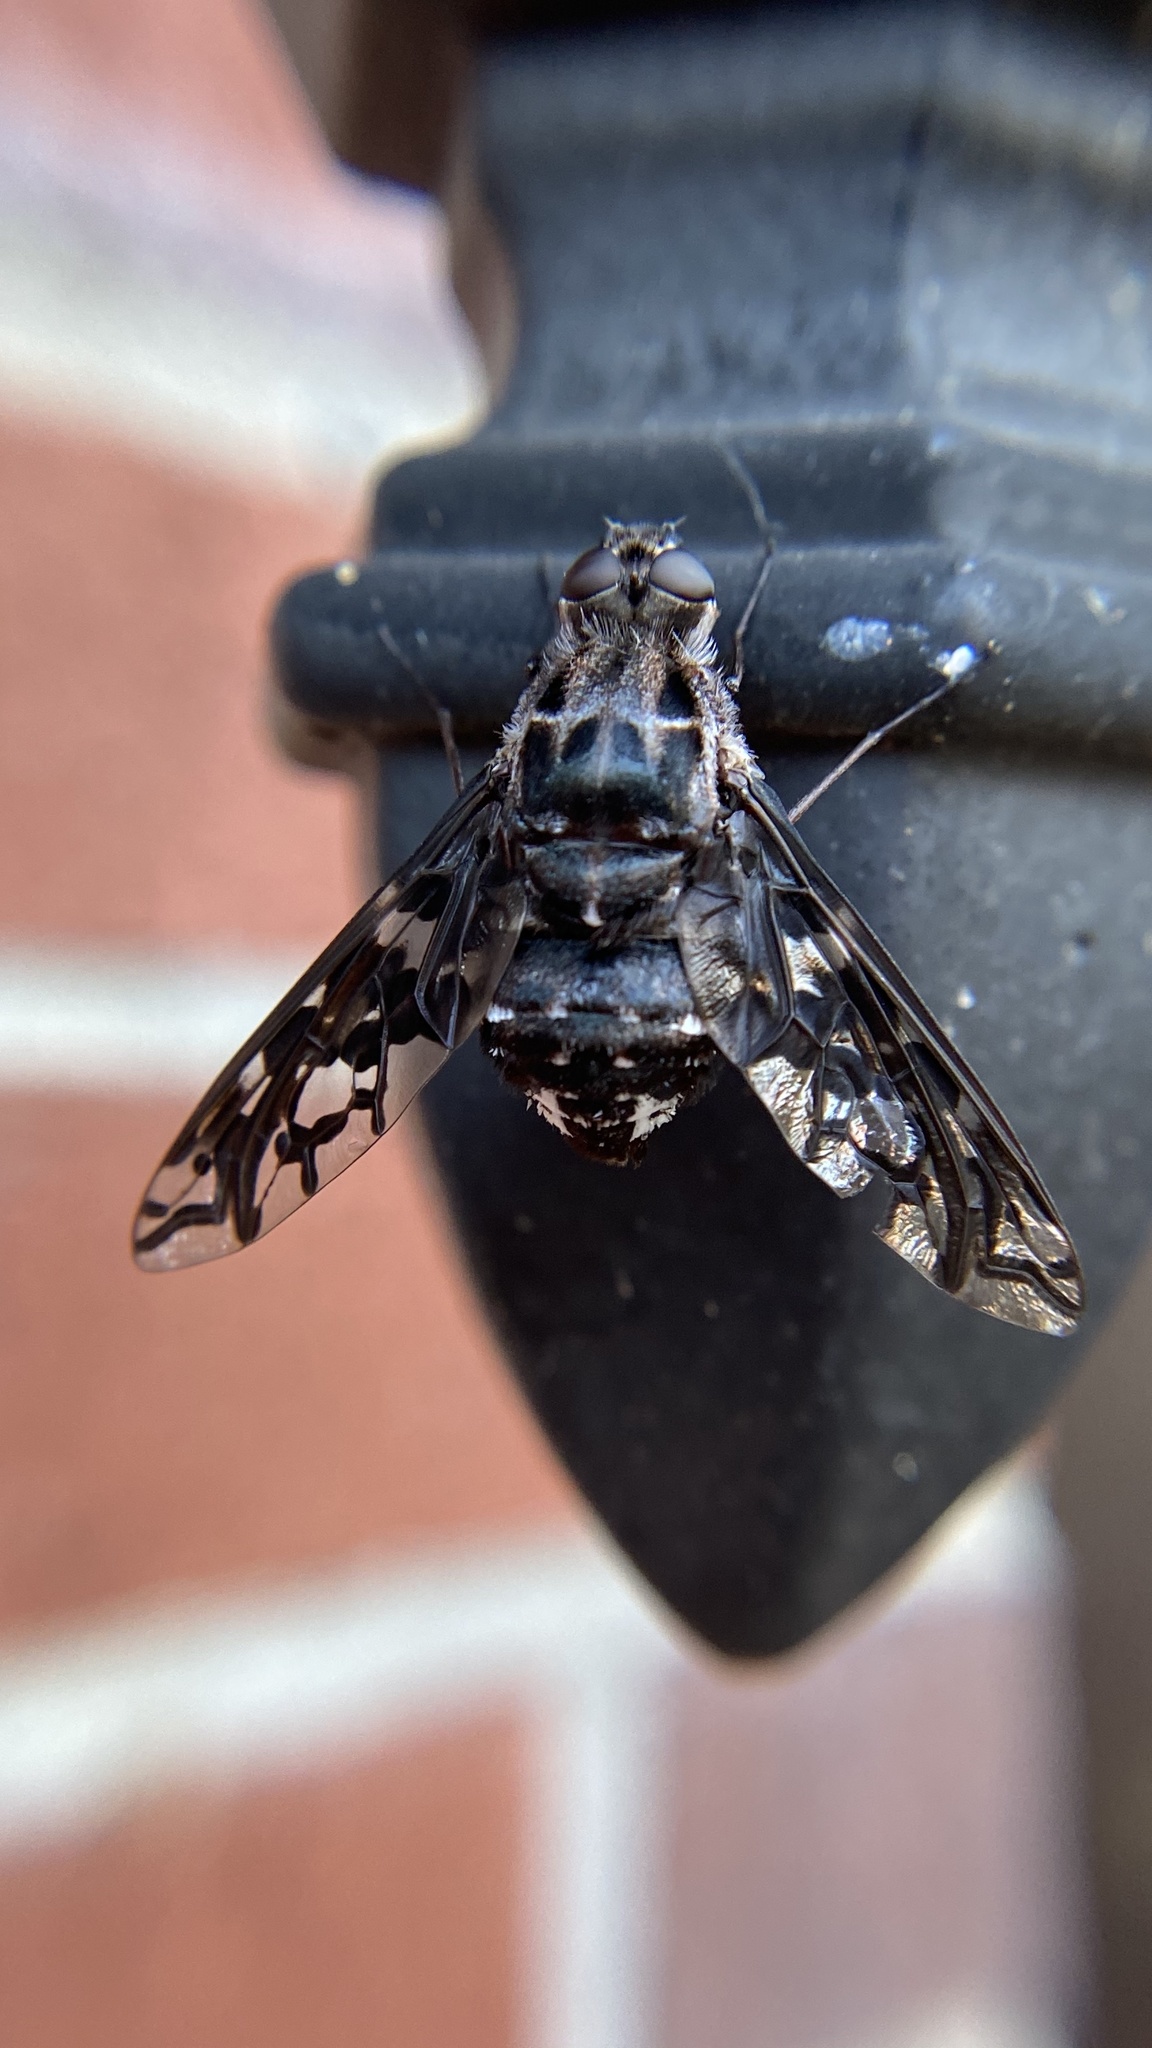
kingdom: Animalia
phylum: Arthropoda
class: Insecta
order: Diptera
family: Bombyliidae
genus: Xenox
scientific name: Xenox tigrinus
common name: Tiger bee fly
